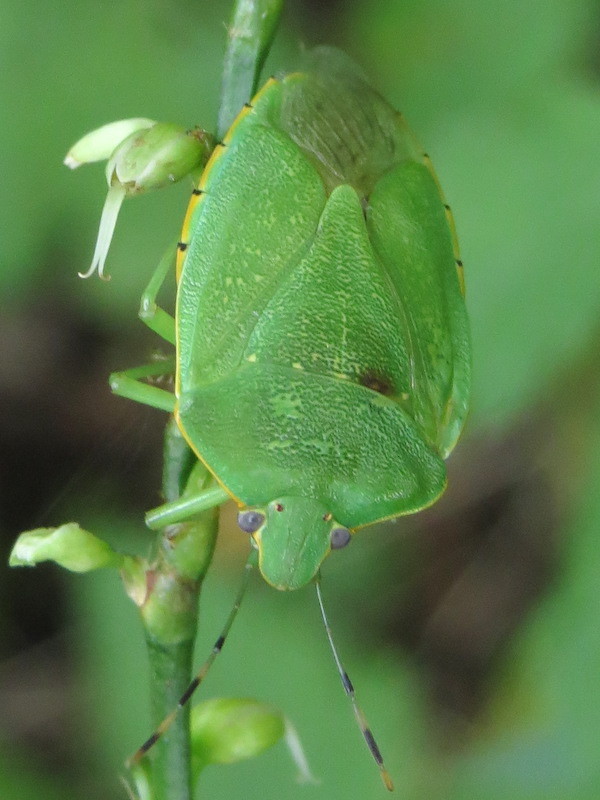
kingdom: Animalia
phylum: Arthropoda
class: Insecta
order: Hemiptera
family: Pentatomidae
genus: Chinavia
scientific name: Chinavia hilaris
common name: Green stink bug
